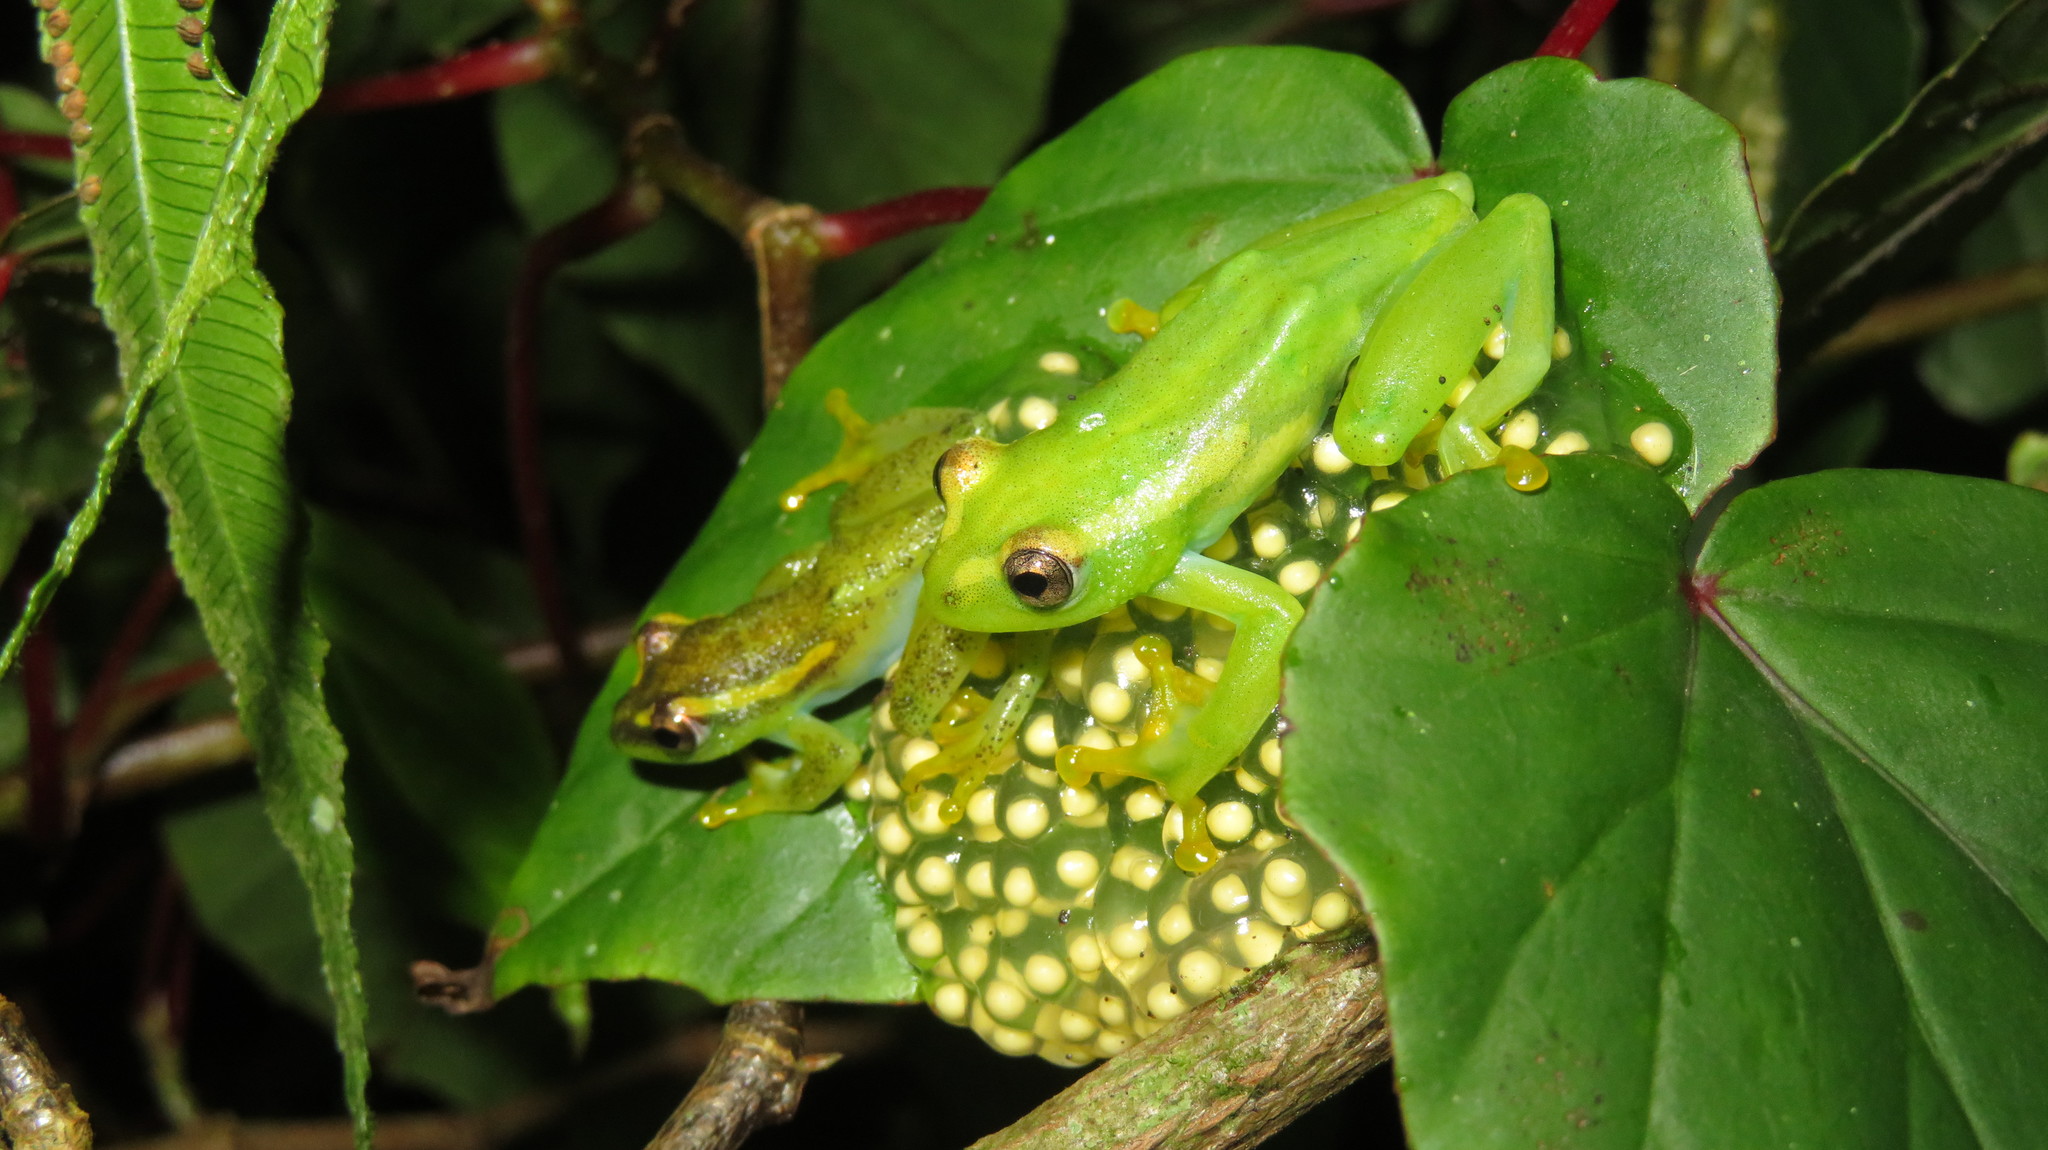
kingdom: Animalia
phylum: Chordata
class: Amphibia
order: Anura
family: Hyperoliidae
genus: Hyperolius
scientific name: Hyperolius tanneri
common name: Tanners' reed frog
